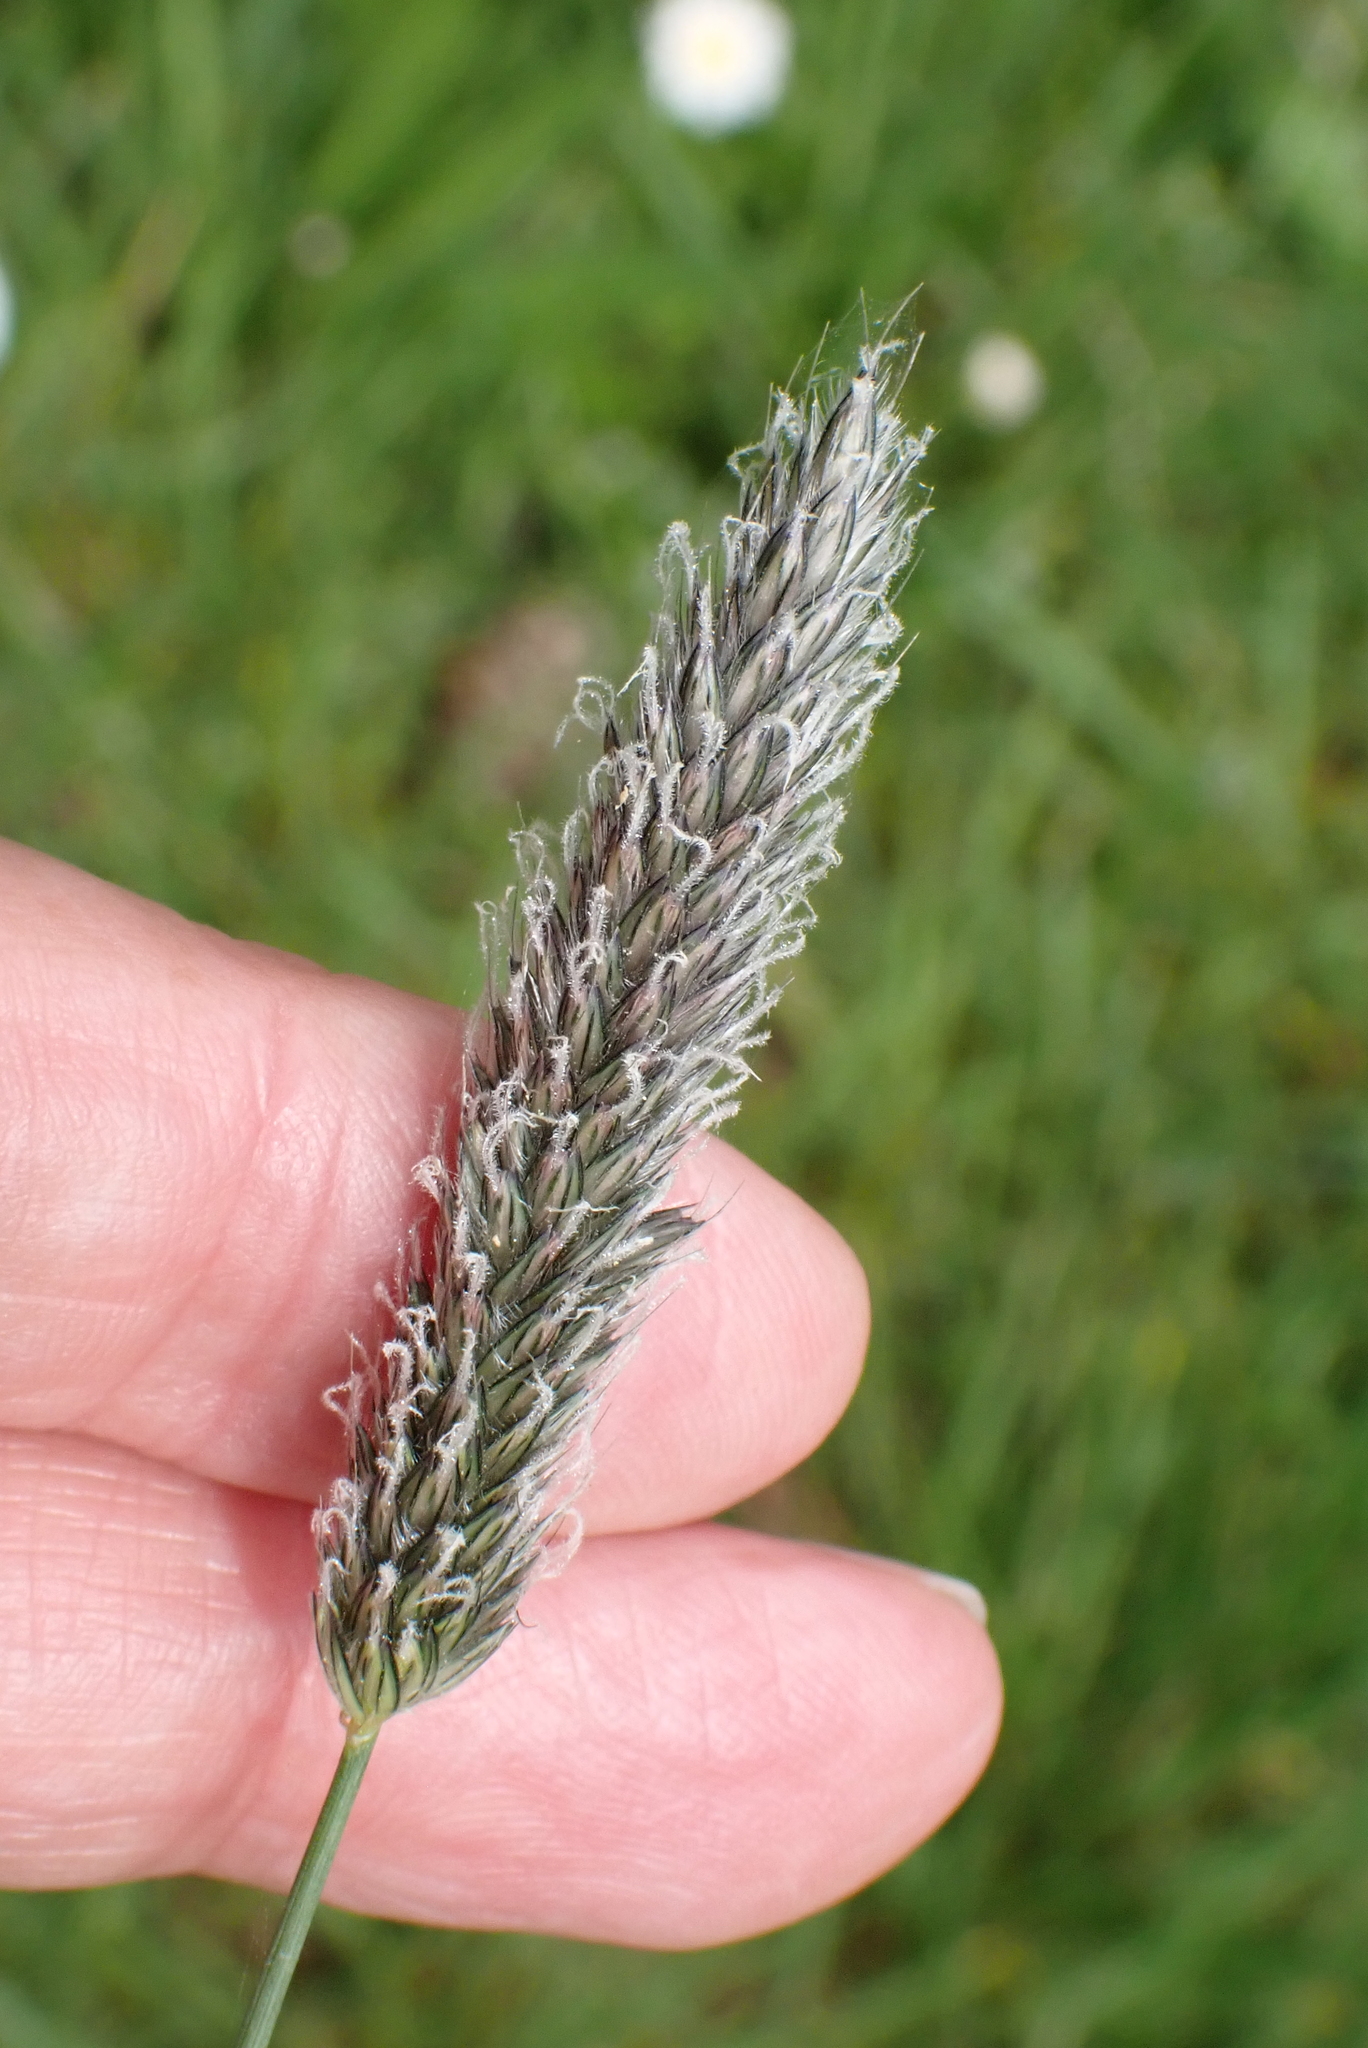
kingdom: Plantae
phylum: Tracheophyta
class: Liliopsida
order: Poales
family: Poaceae
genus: Alopecurus
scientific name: Alopecurus pratensis
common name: Meadow foxtail
